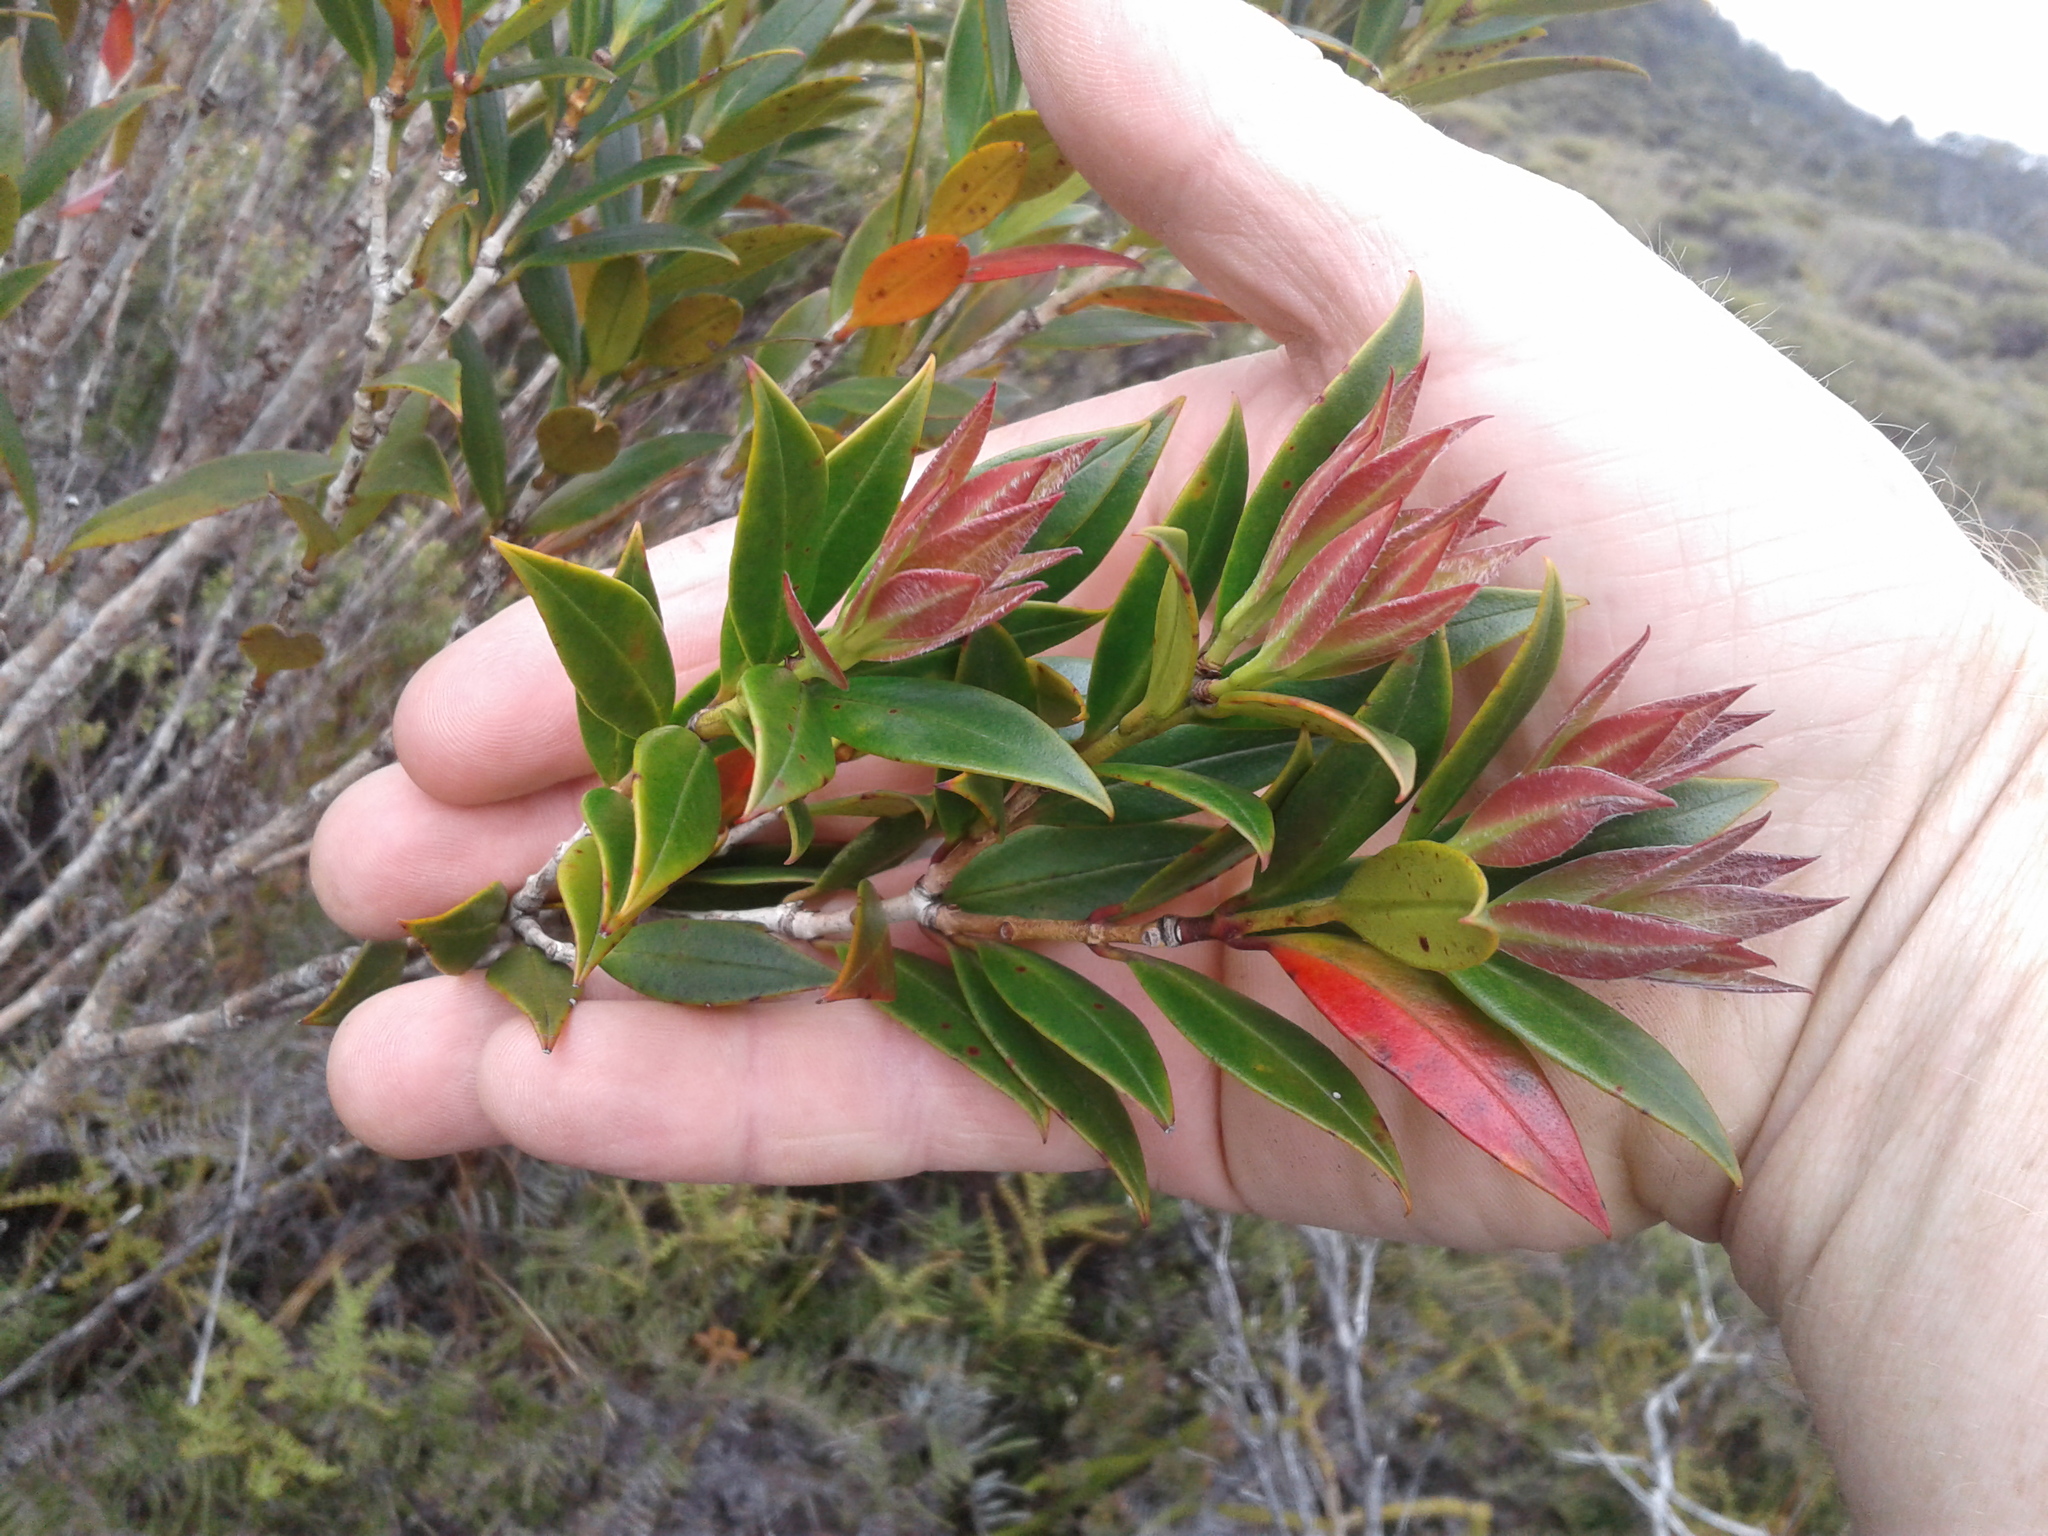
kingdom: Plantae
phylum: Tracheophyta
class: Magnoliopsida
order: Myrtales
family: Myrtaceae
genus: Metrosideros
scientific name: Metrosideros umbellata
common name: Southern rata
